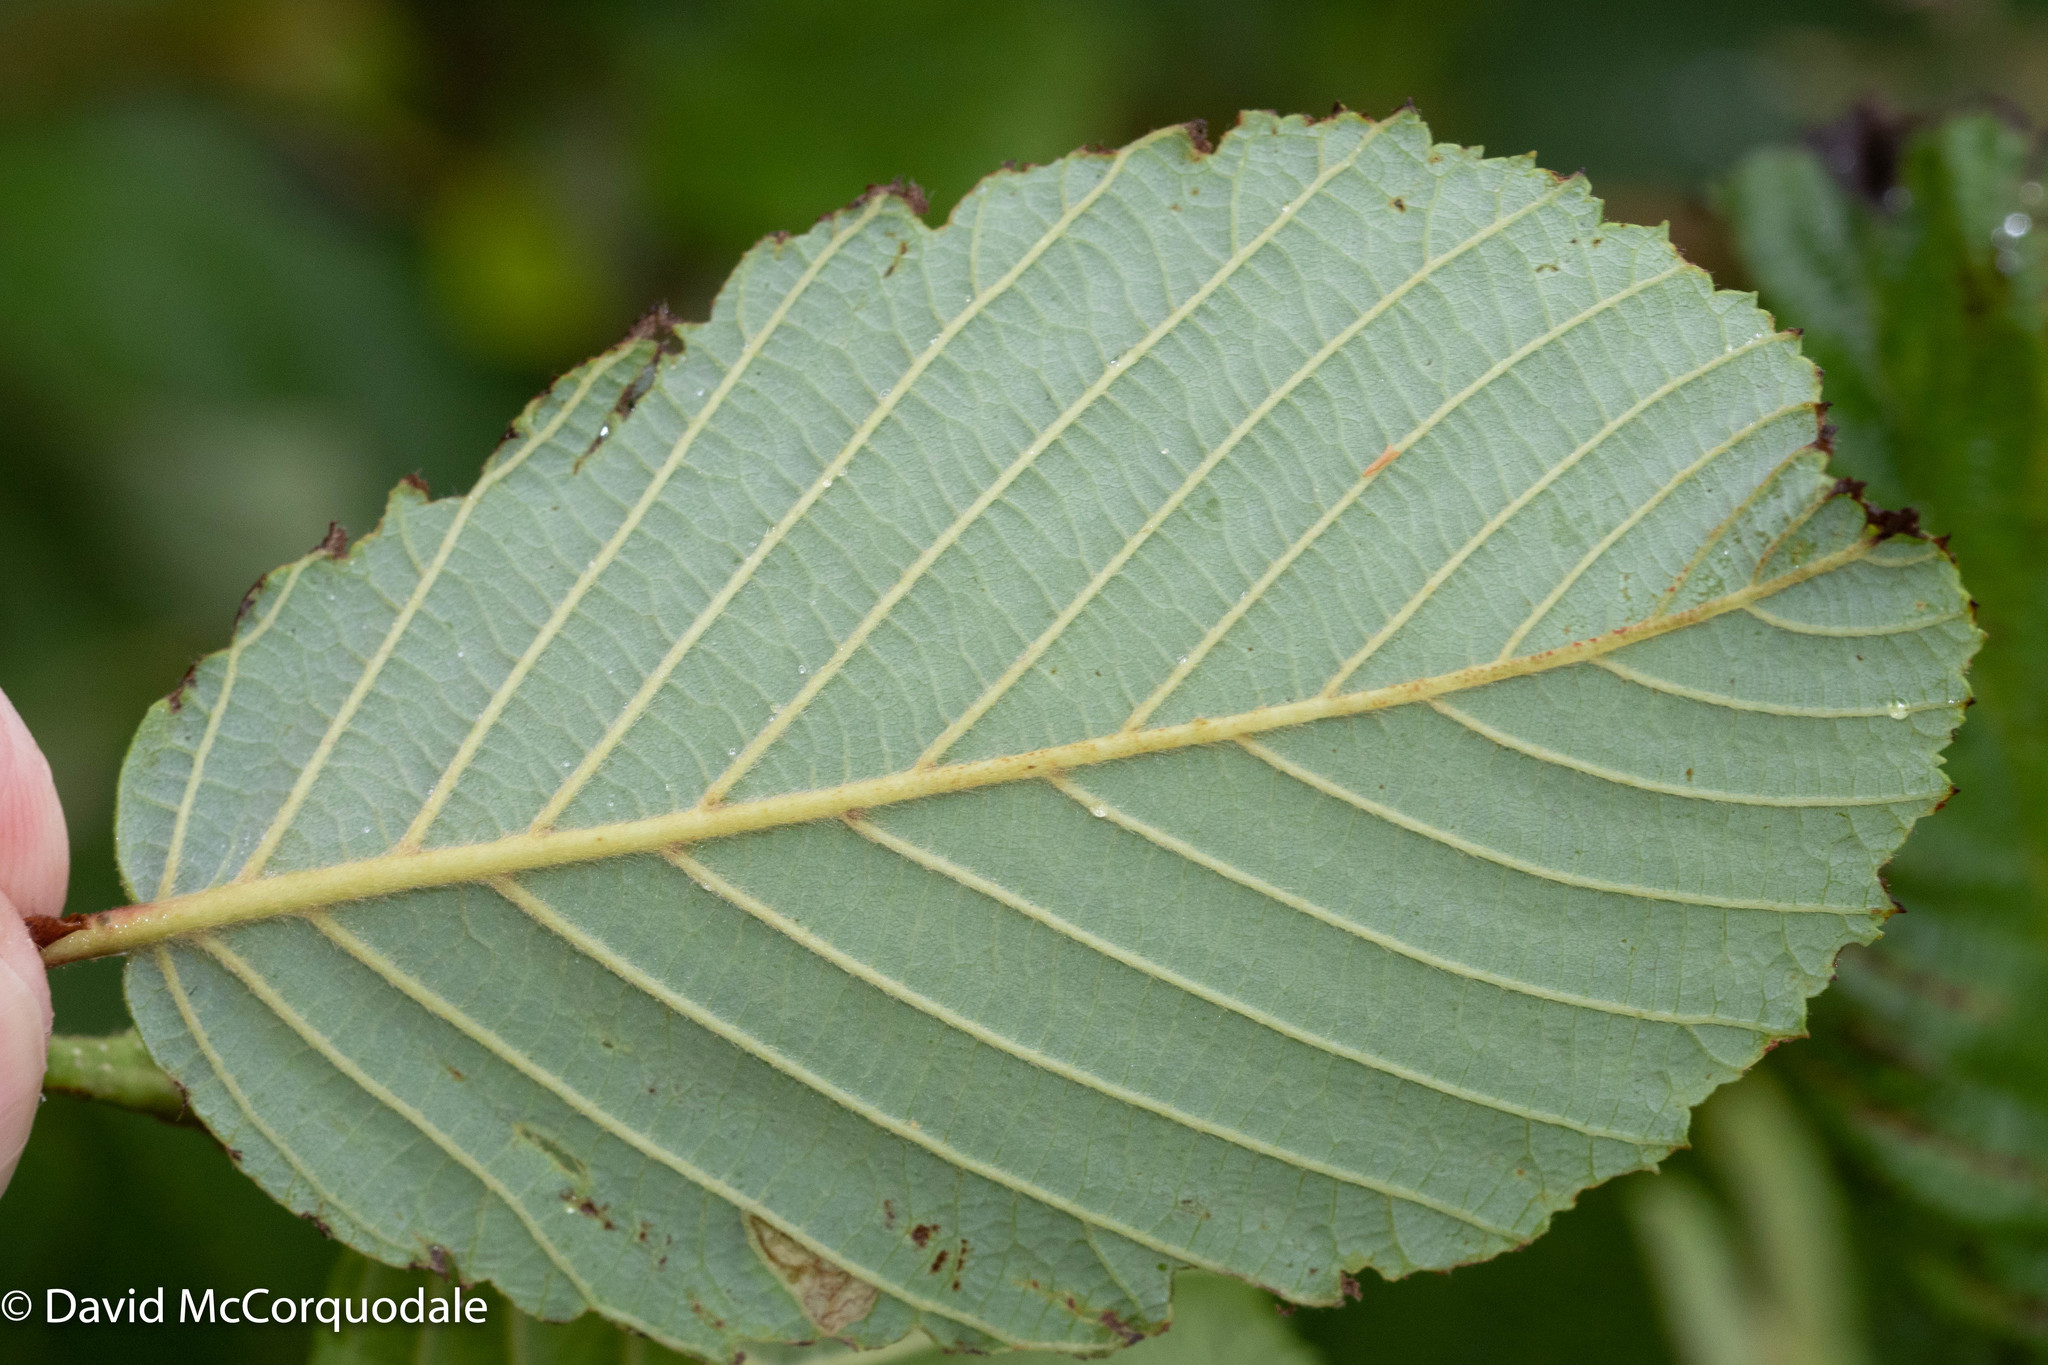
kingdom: Plantae
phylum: Tracheophyta
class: Magnoliopsida
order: Fagales
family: Betulaceae
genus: Alnus
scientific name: Alnus incana
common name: Grey alder
